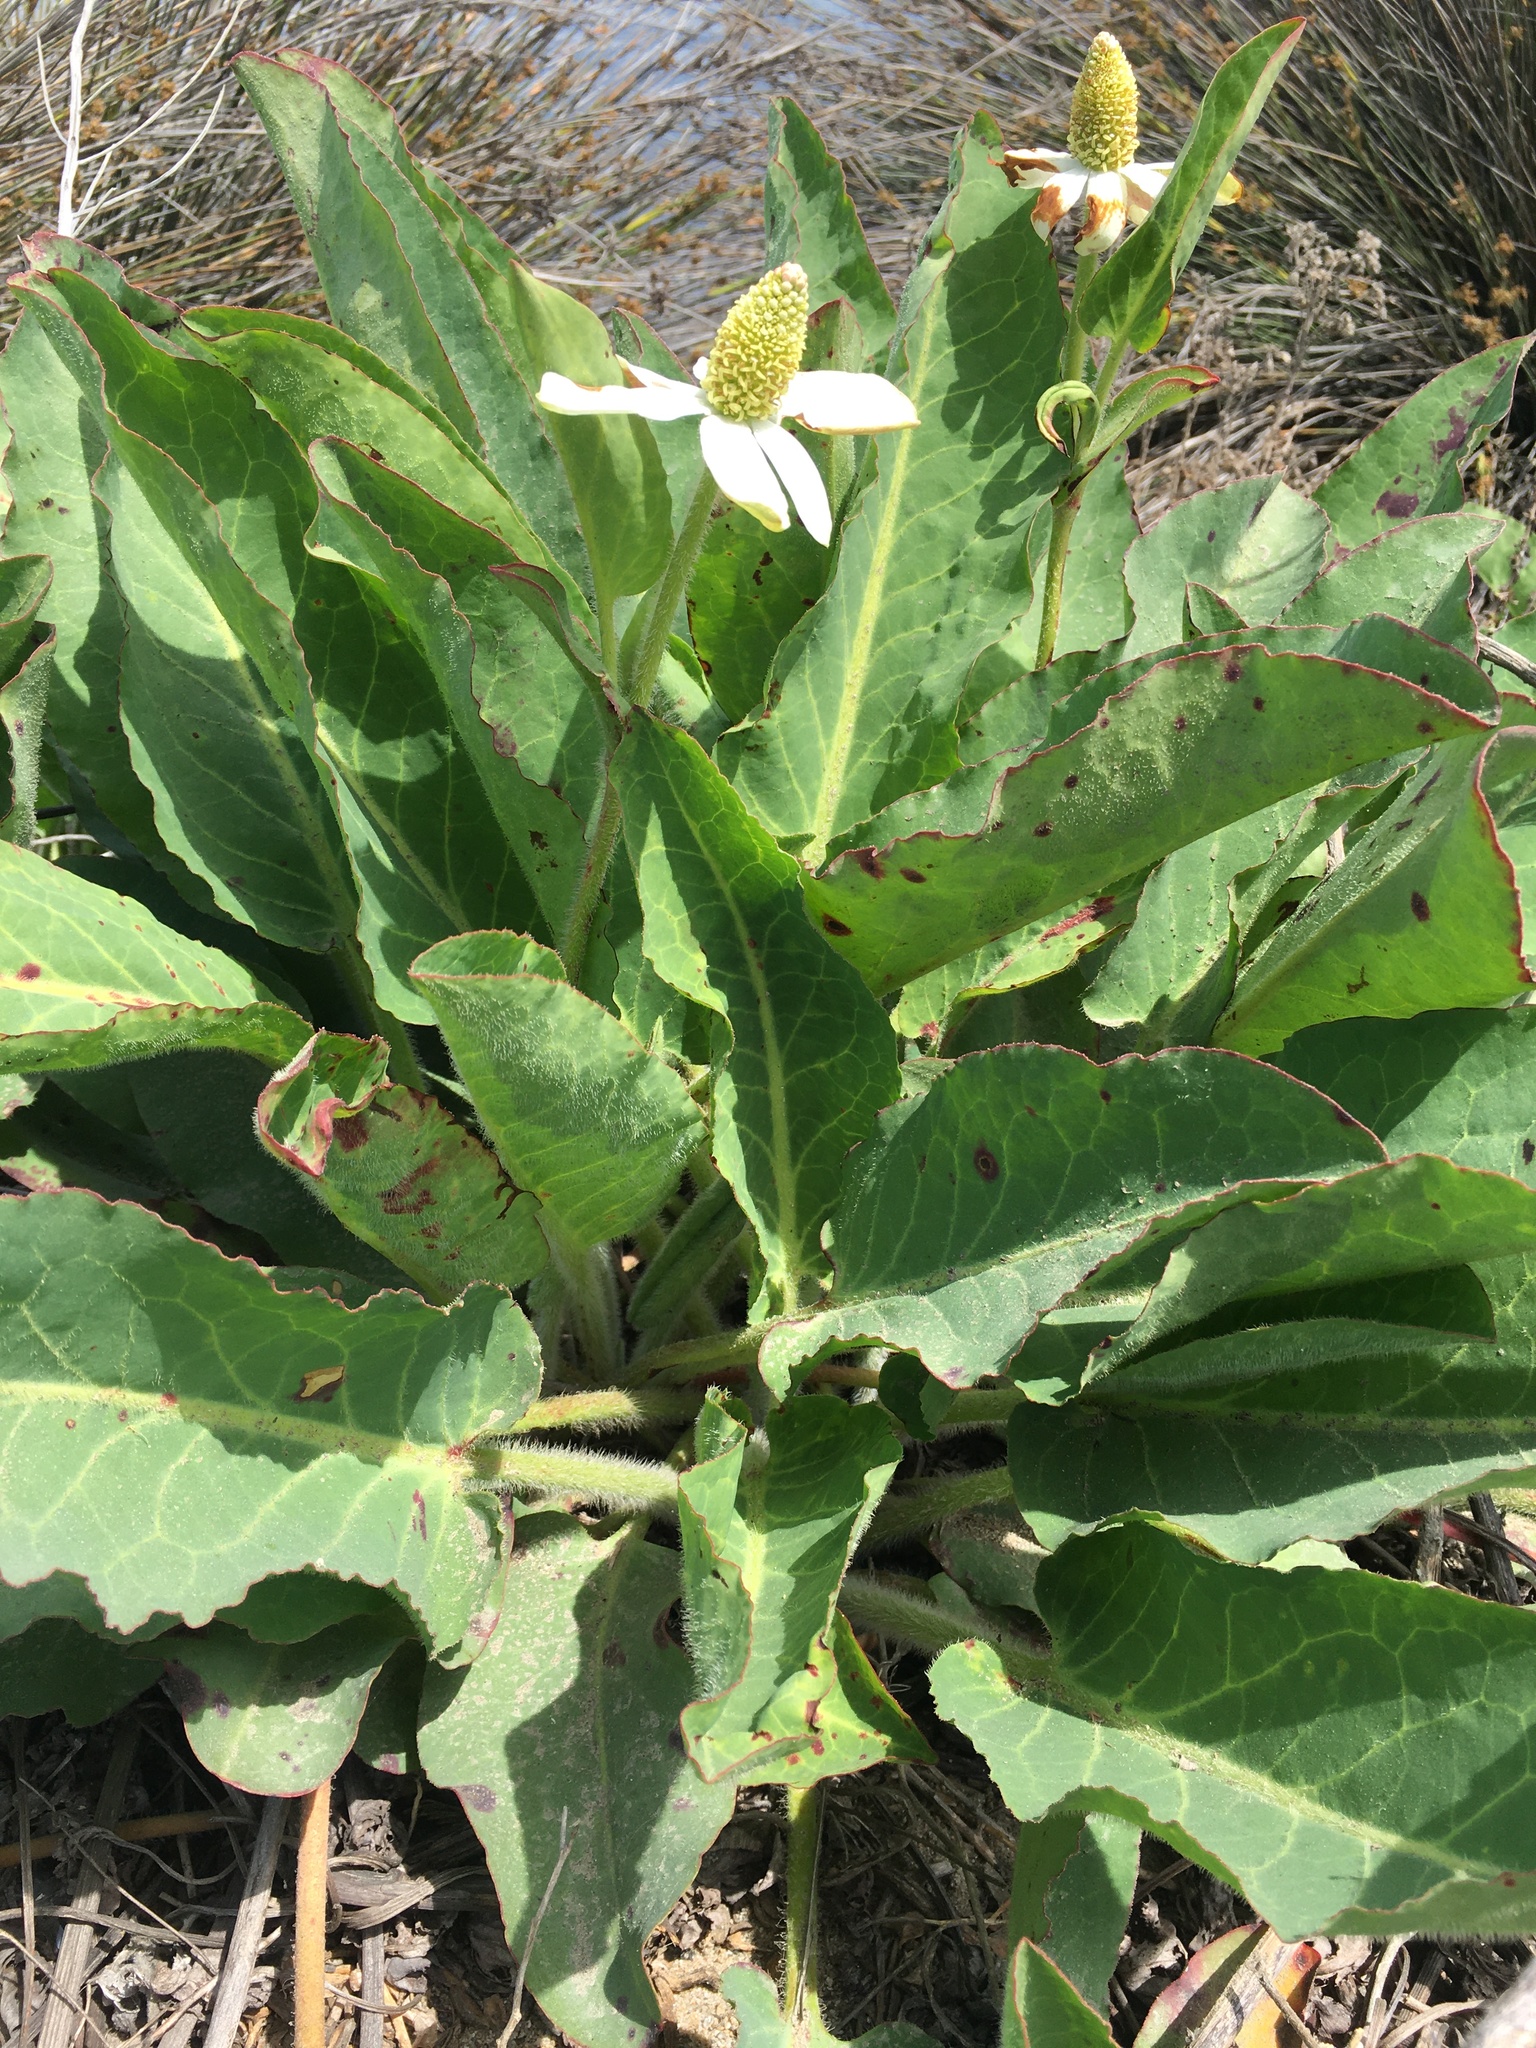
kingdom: Plantae
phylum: Tracheophyta
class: Magnoliopsida
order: Piperales
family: Saururaceae
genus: Anemopsis
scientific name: Anemopsis californica
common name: Apache-beads
